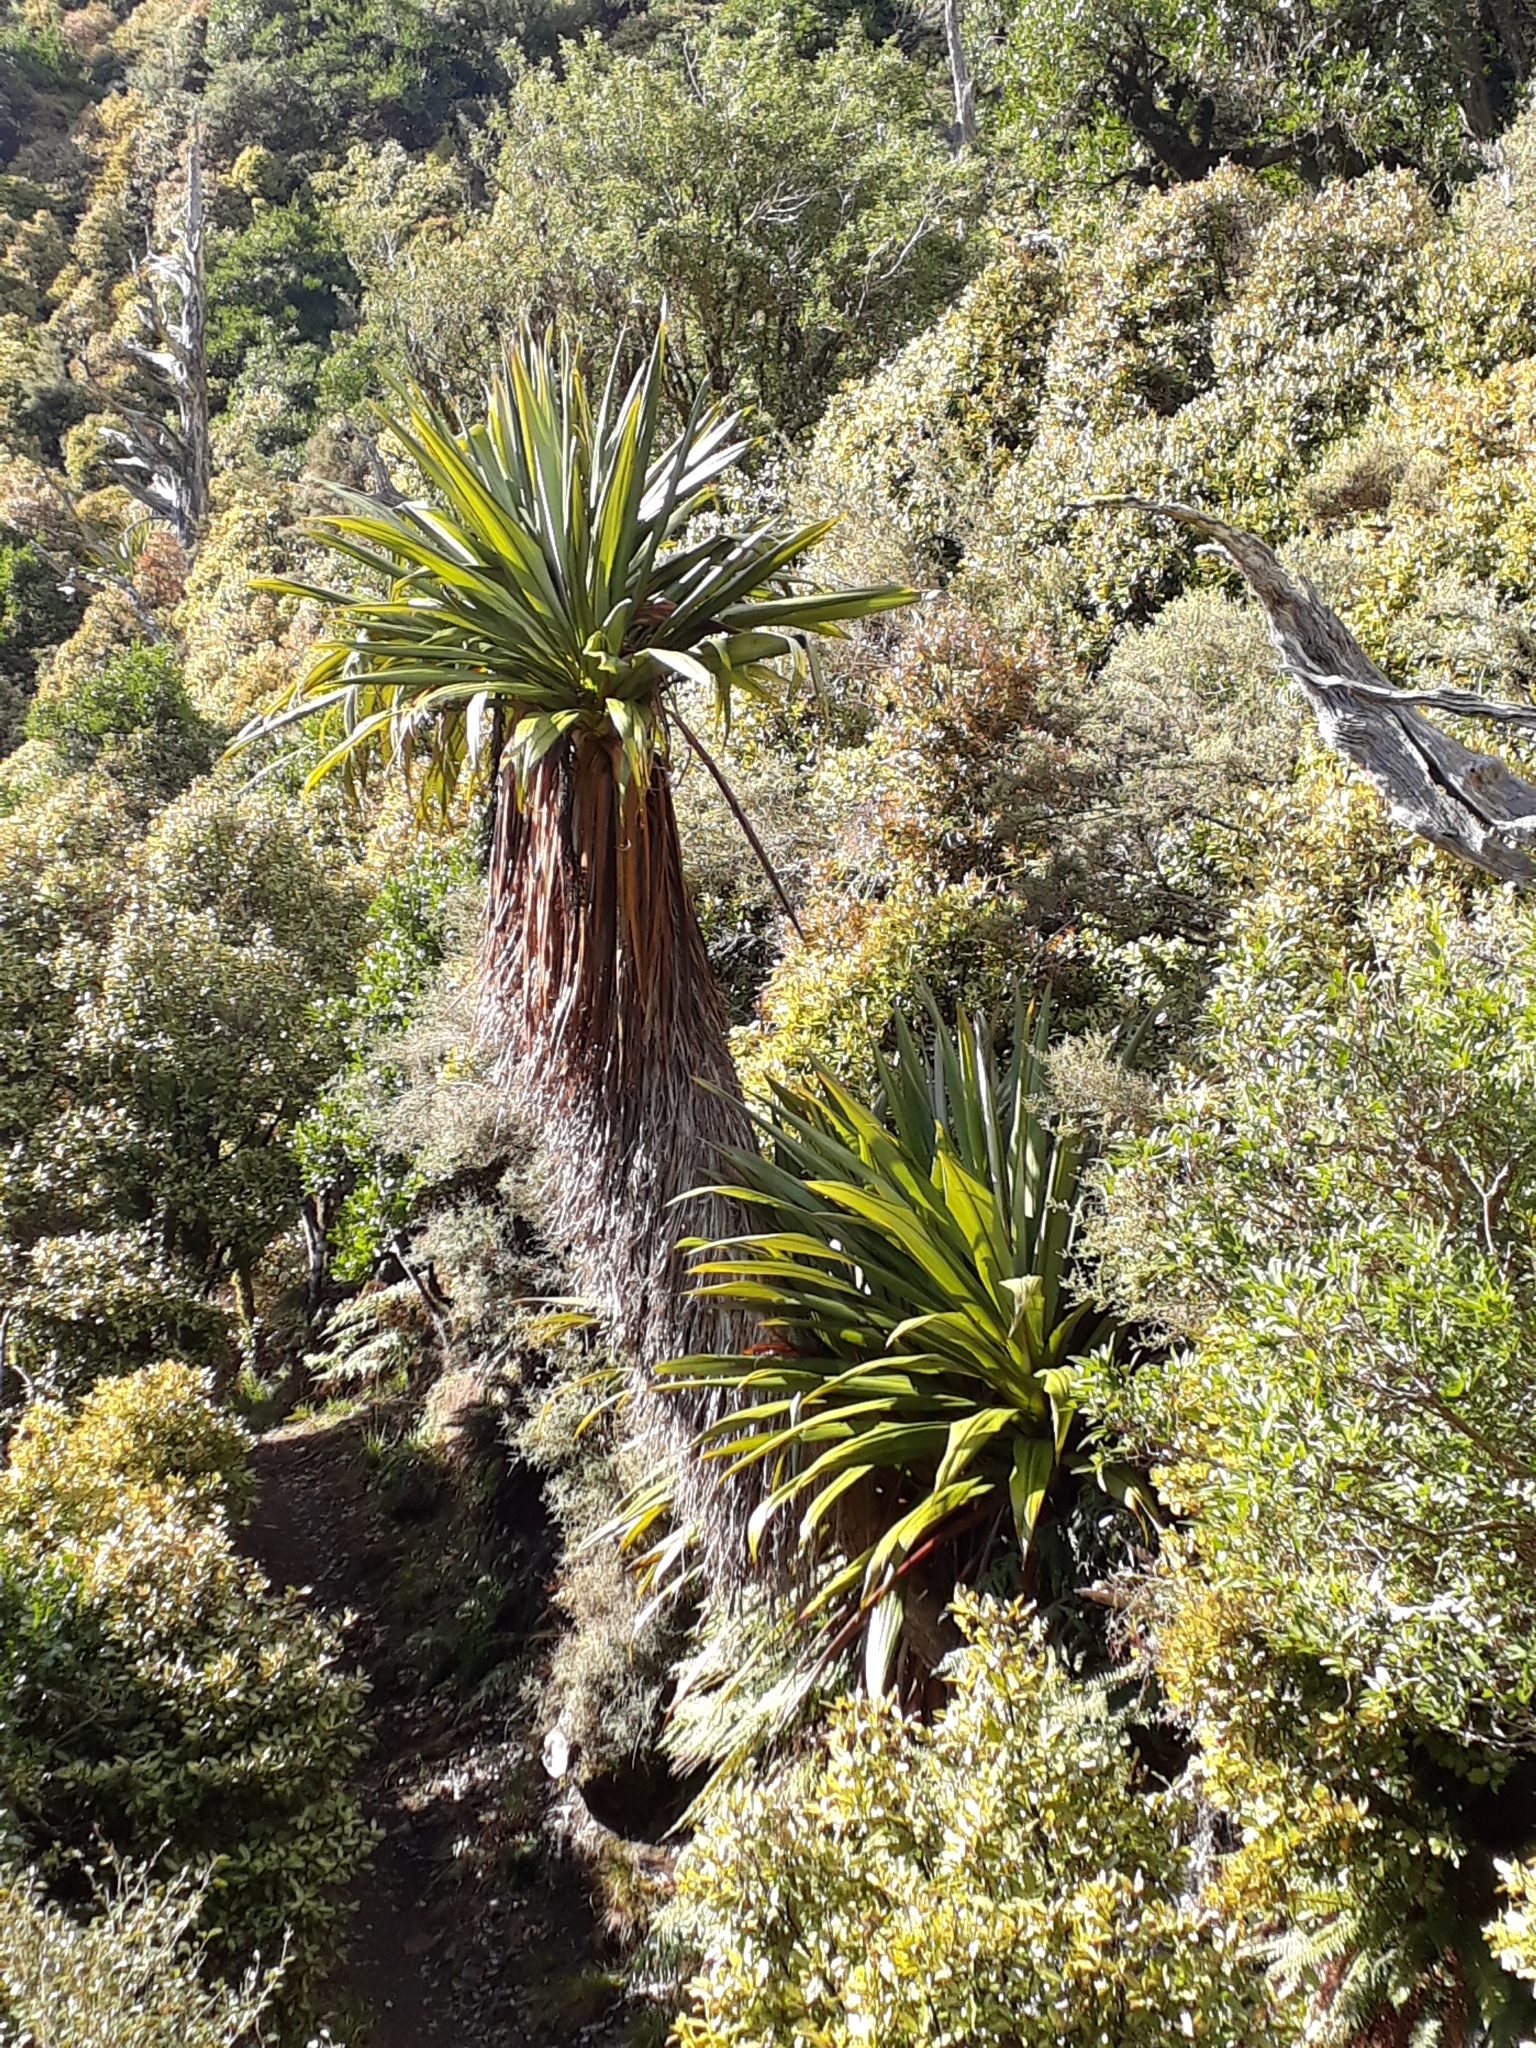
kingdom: Plantae
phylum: Tracheophyta
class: Liliopsida
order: Asparagales
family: Asparagaceae
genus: Cordyline
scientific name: Cordyline indivisa
